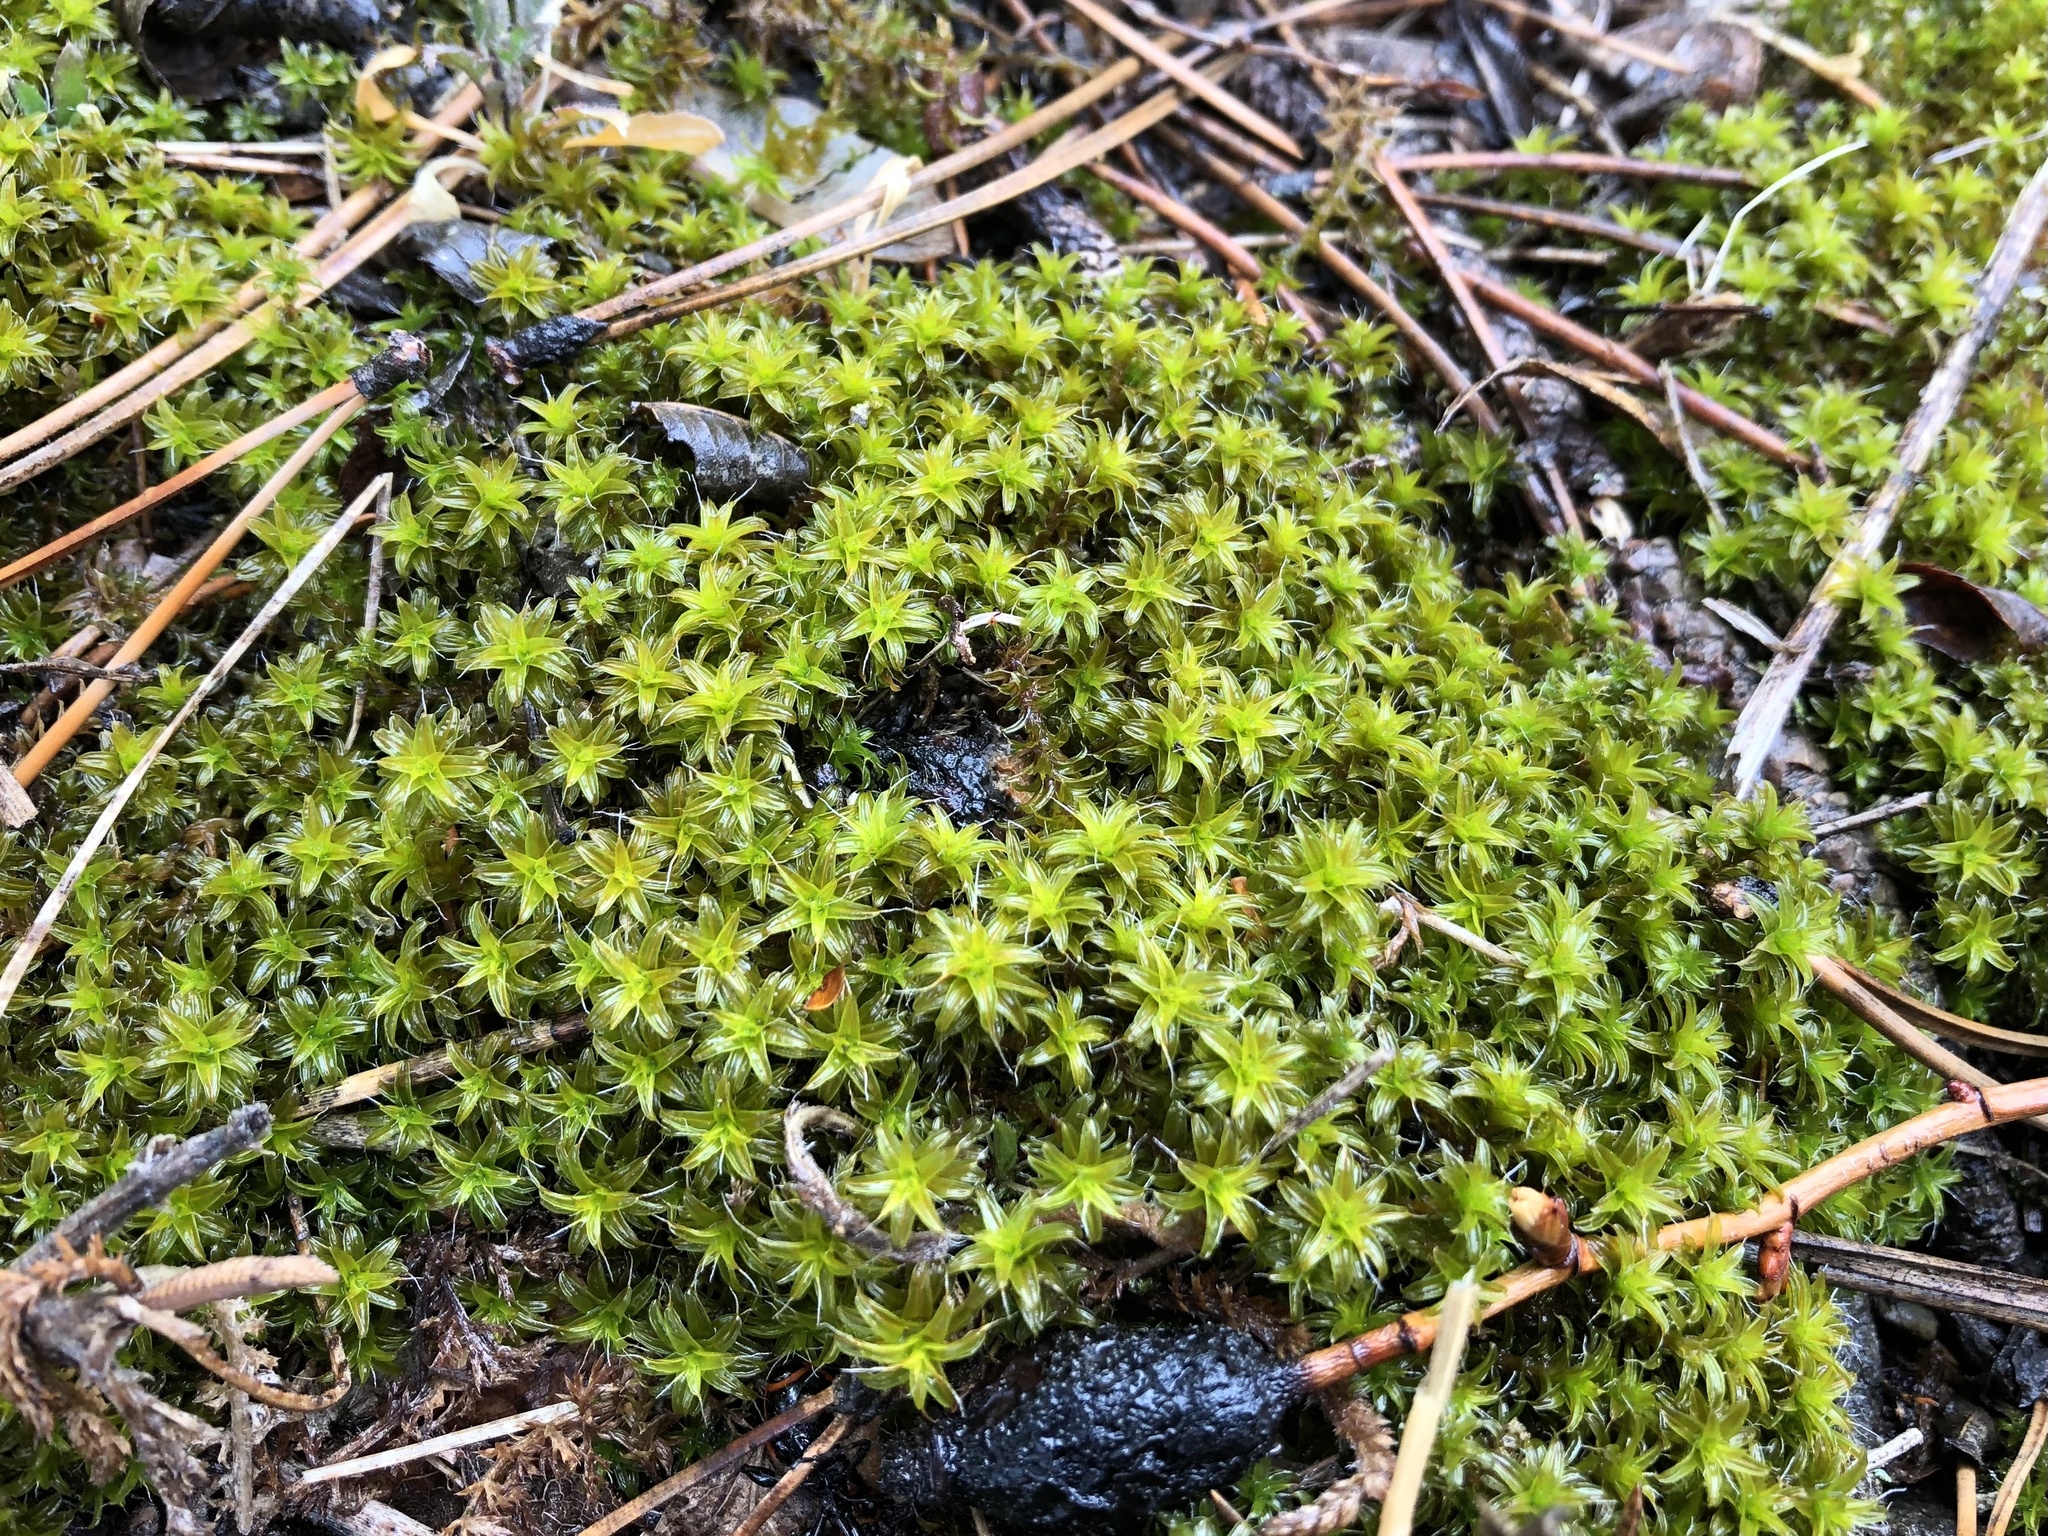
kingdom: Plantae
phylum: Bryophyta
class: Bryopsida
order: Pottiales
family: Pottiaceae
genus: Syntrichia
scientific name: Syntrichia ruralis
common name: Sidewalk screw moss
